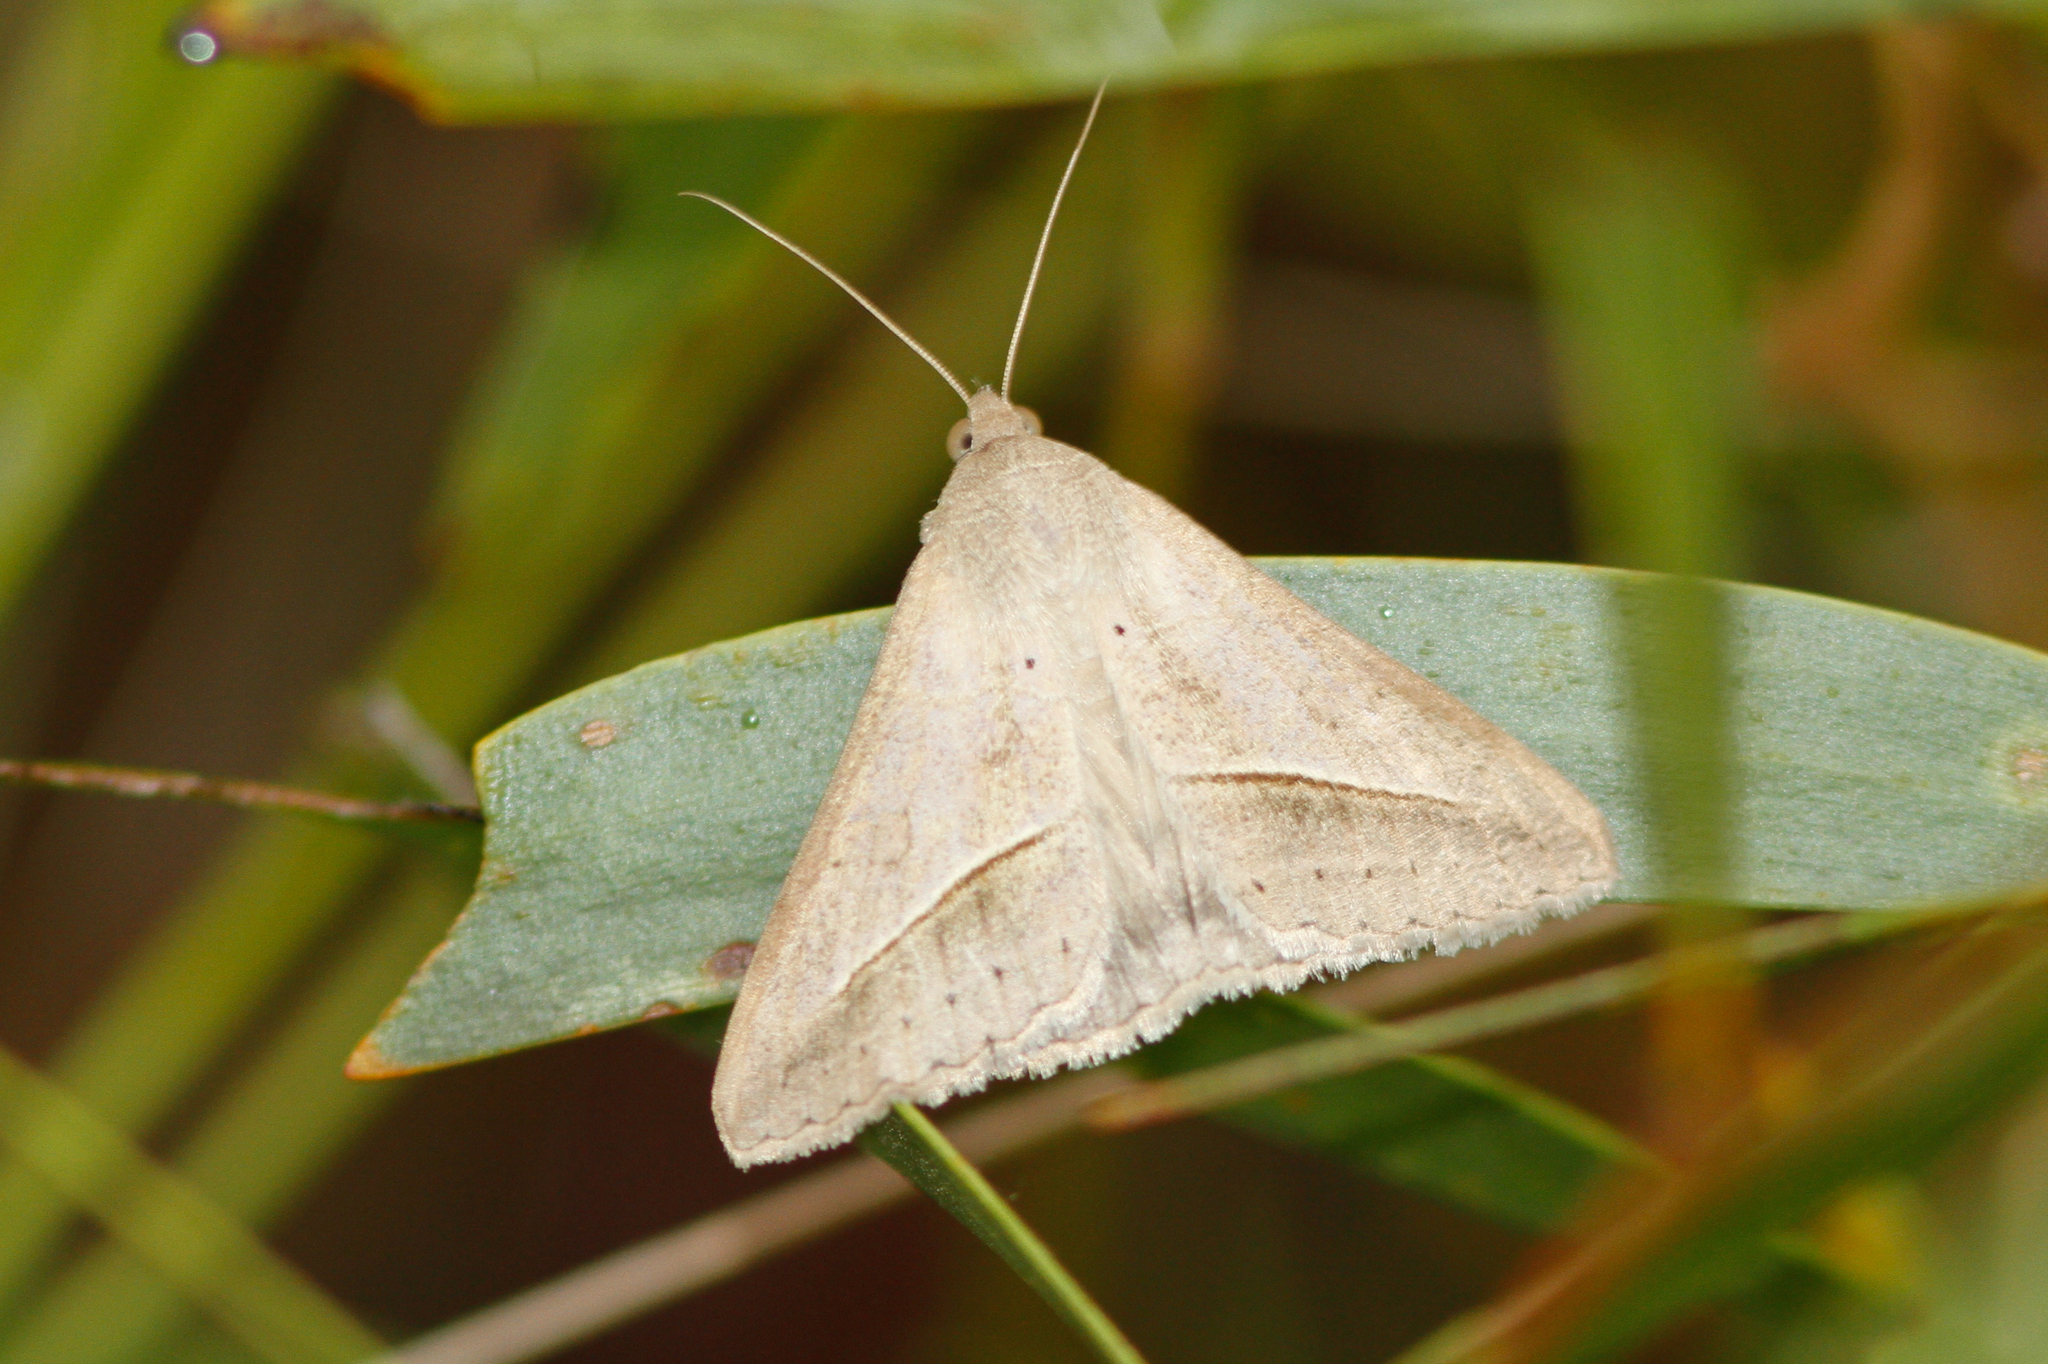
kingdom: Animalia
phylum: Arthropoda
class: Insecta
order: Lepidoptera
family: Erebidae
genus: Mocis
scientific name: Mocis frugalis
